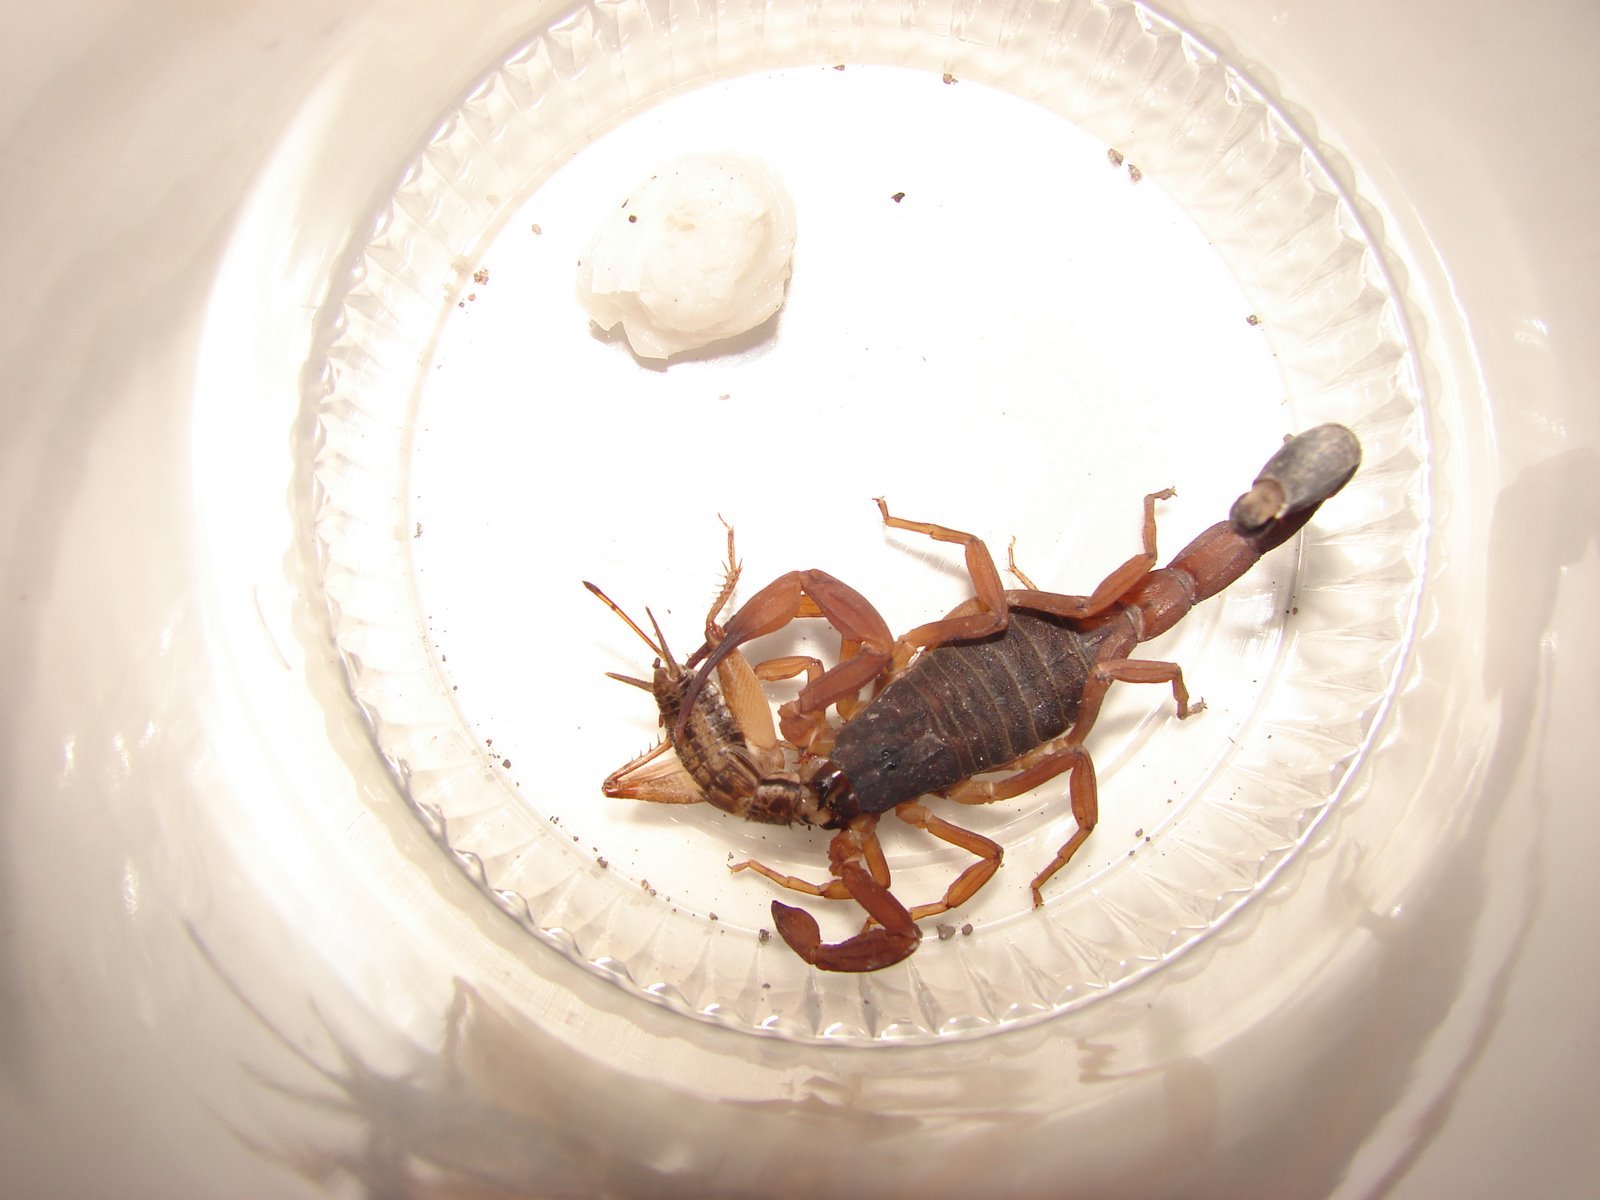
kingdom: Animalia
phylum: Arthropoda
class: Arachnida
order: Scorpiones
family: Buthidae
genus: Tityus
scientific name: Tityus uniformis
